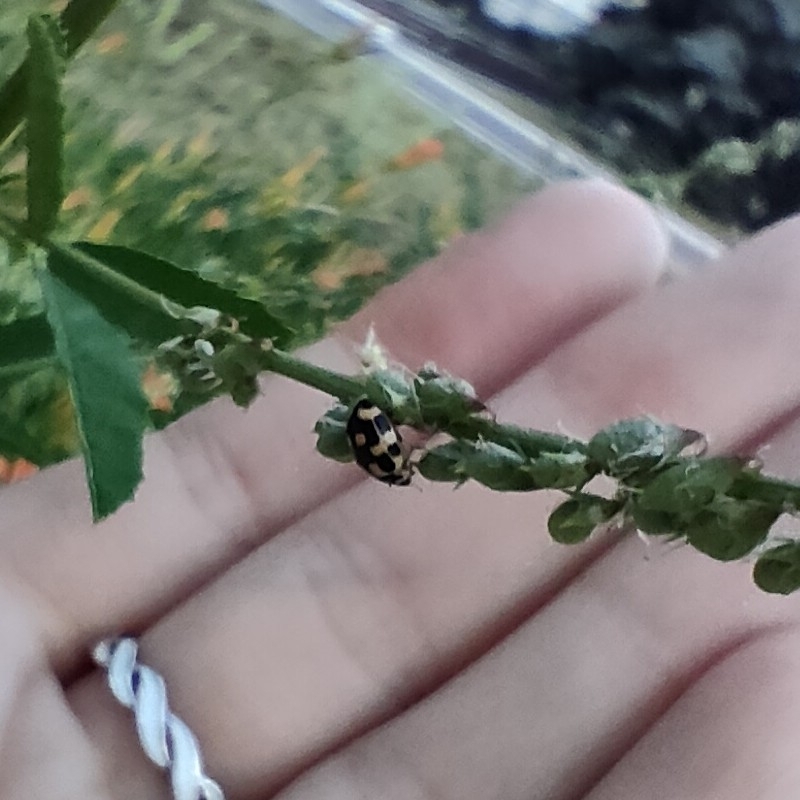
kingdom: Animalia
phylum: Arthropoda
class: Insecta
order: Coleoptera
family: Coccinellidae
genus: Propylaea
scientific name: Propylaea quatuordecimpunctata
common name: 14-spotted ladybird beetle
